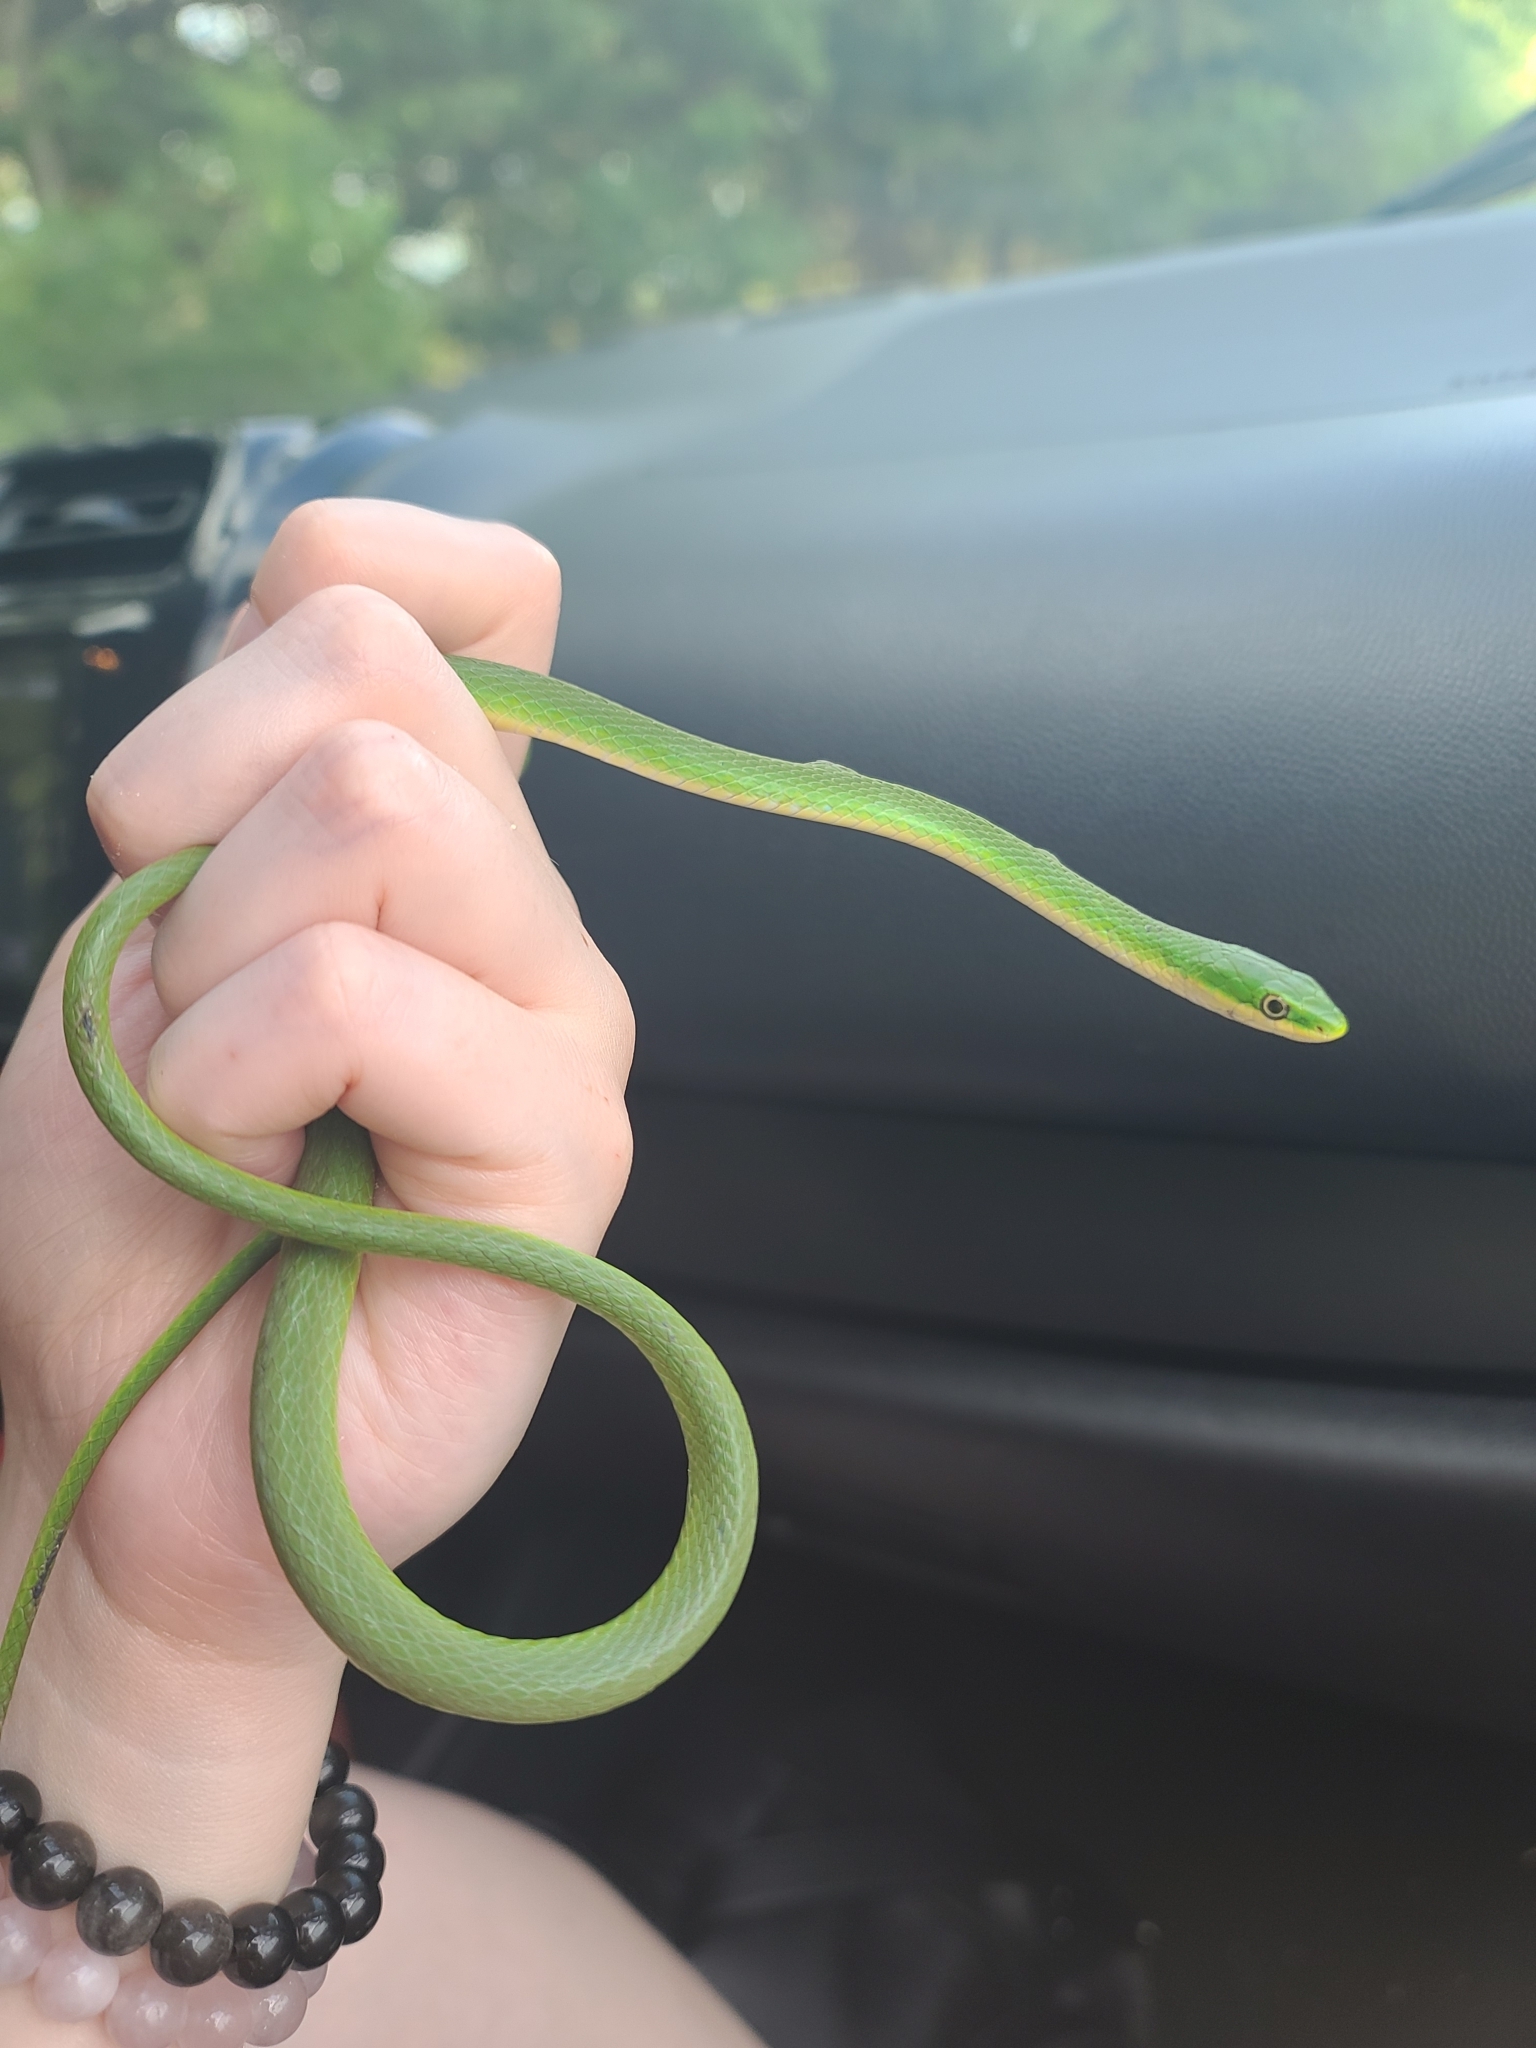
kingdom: Animalia
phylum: Chordata
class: Squamata
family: Colubridae
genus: Opheodrys
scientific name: Opheodrys aestivus
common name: Rough greensnake
